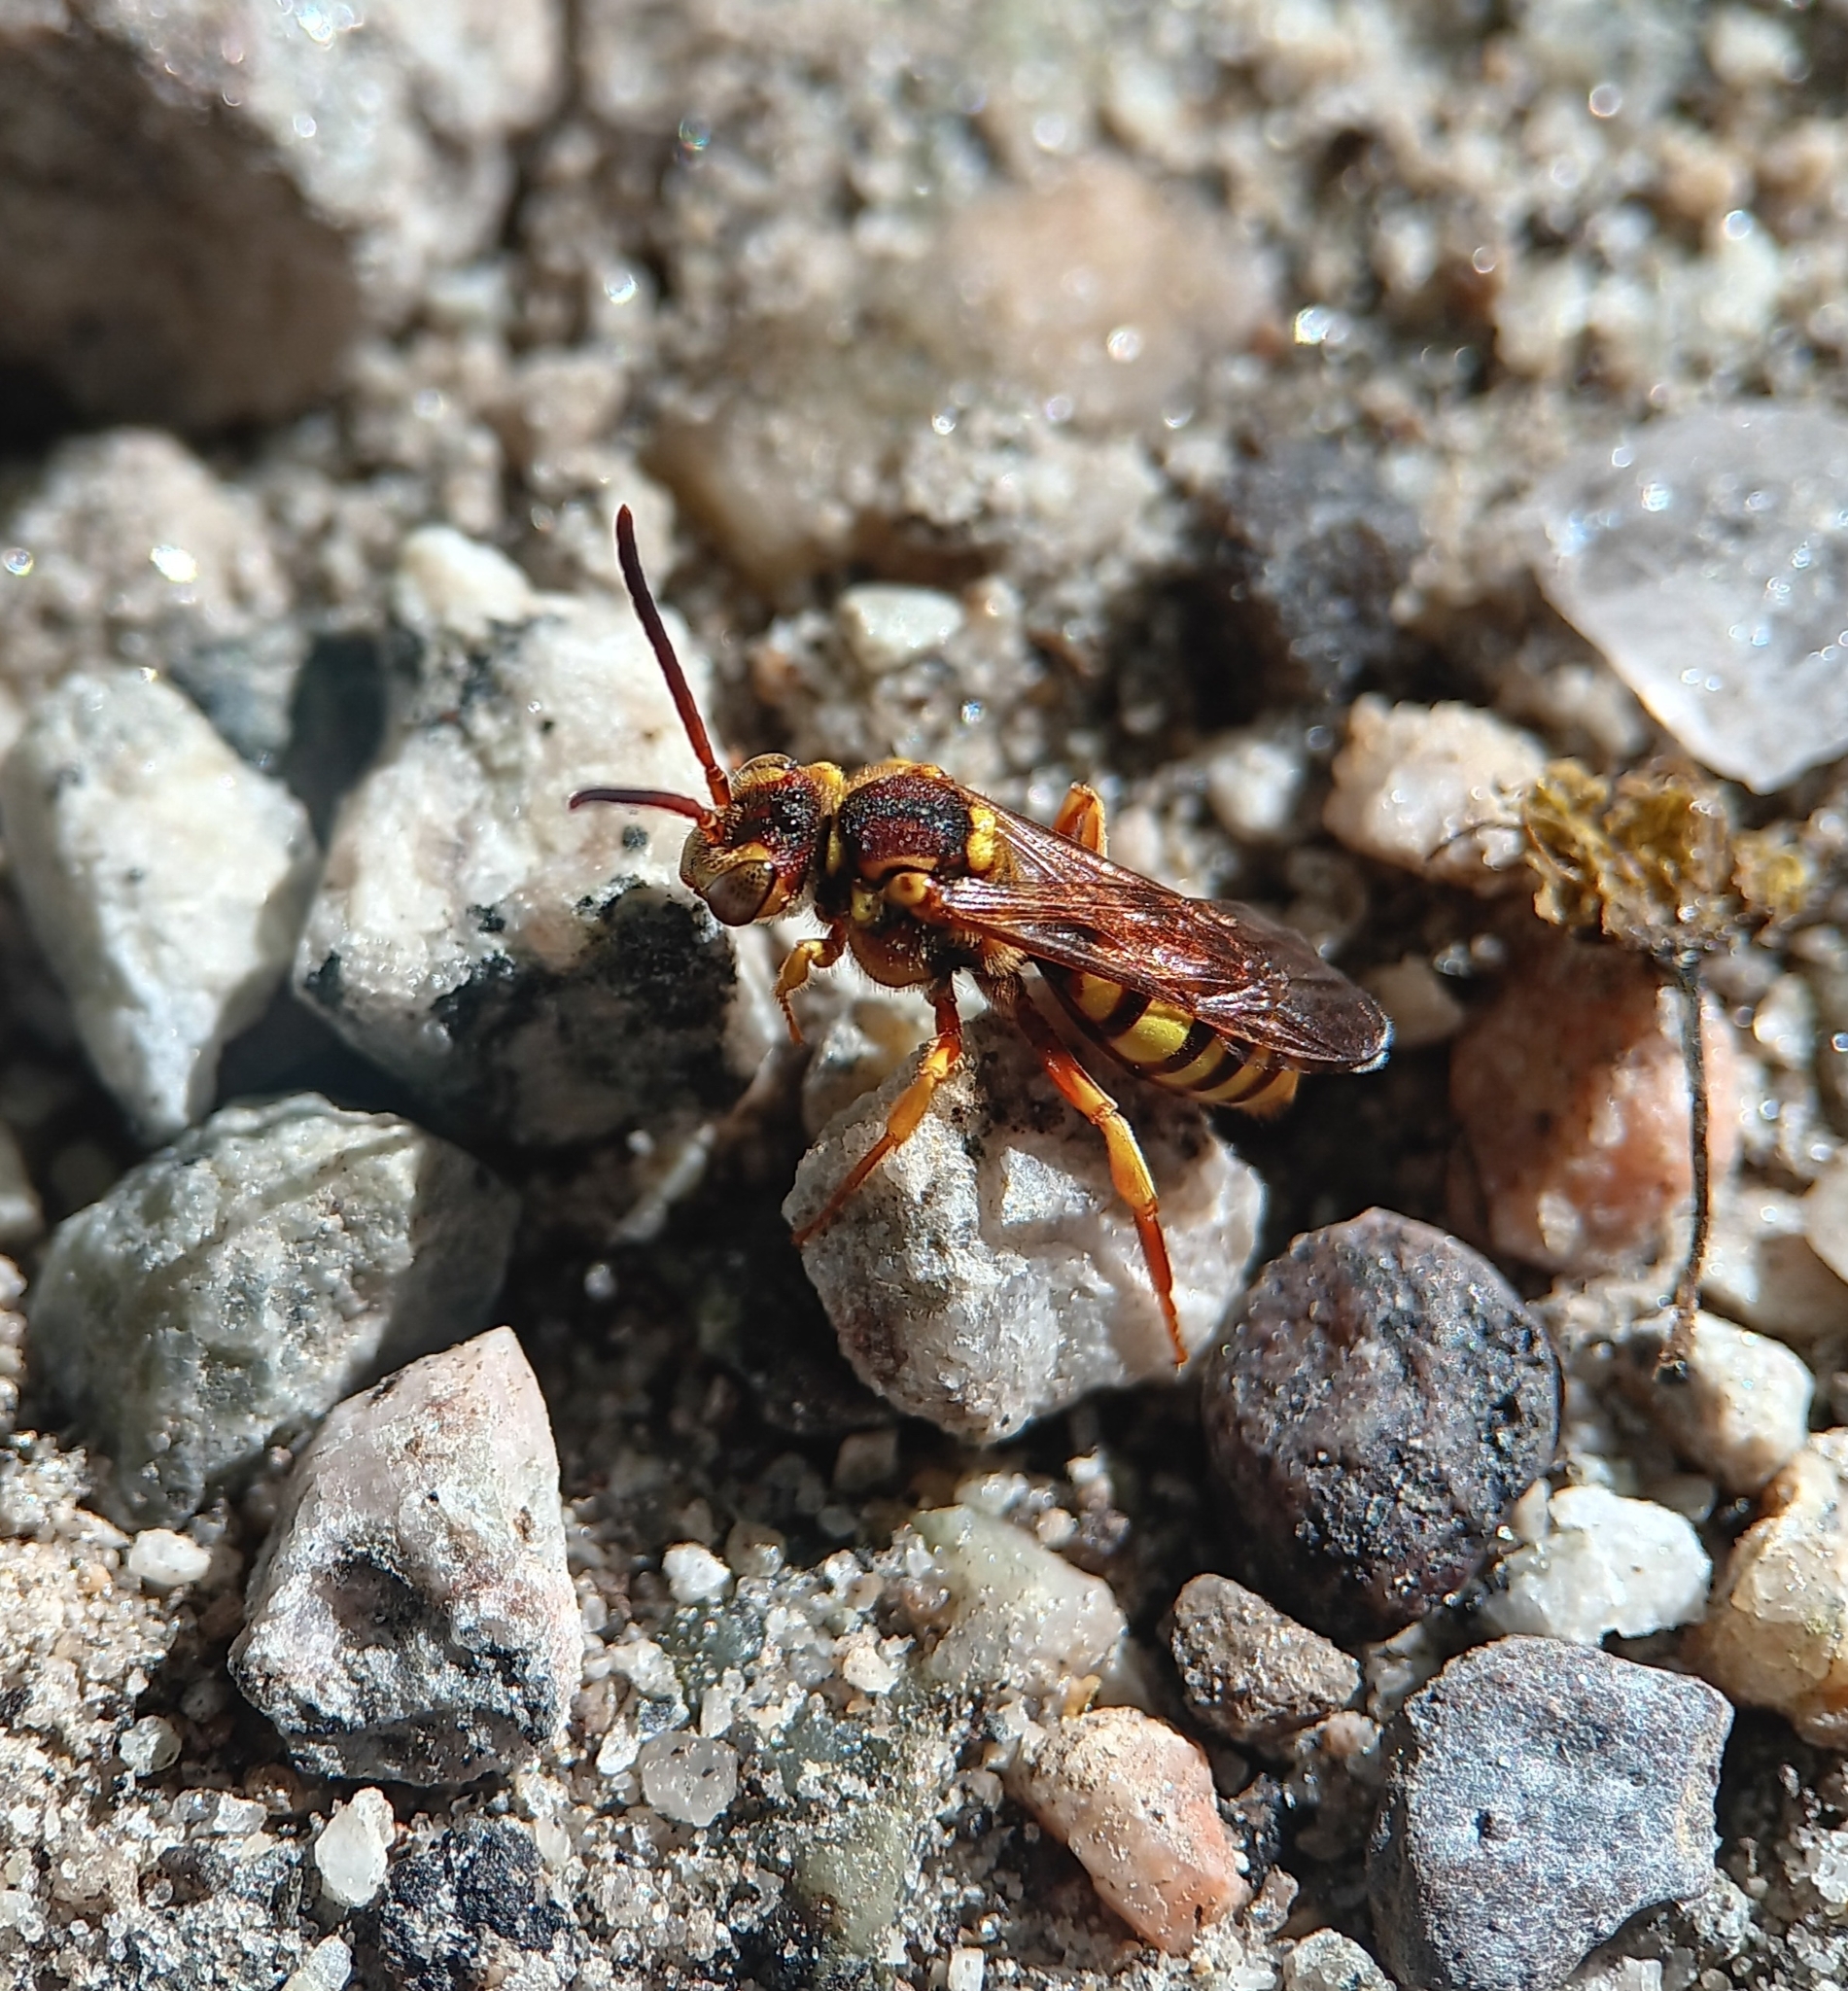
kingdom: Animalia
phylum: Arthropoda
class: Insecta
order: Hymenoptera
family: Apidae
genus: Nomada
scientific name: Nomada luteoloides
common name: Black-and-yellow nomad bee
